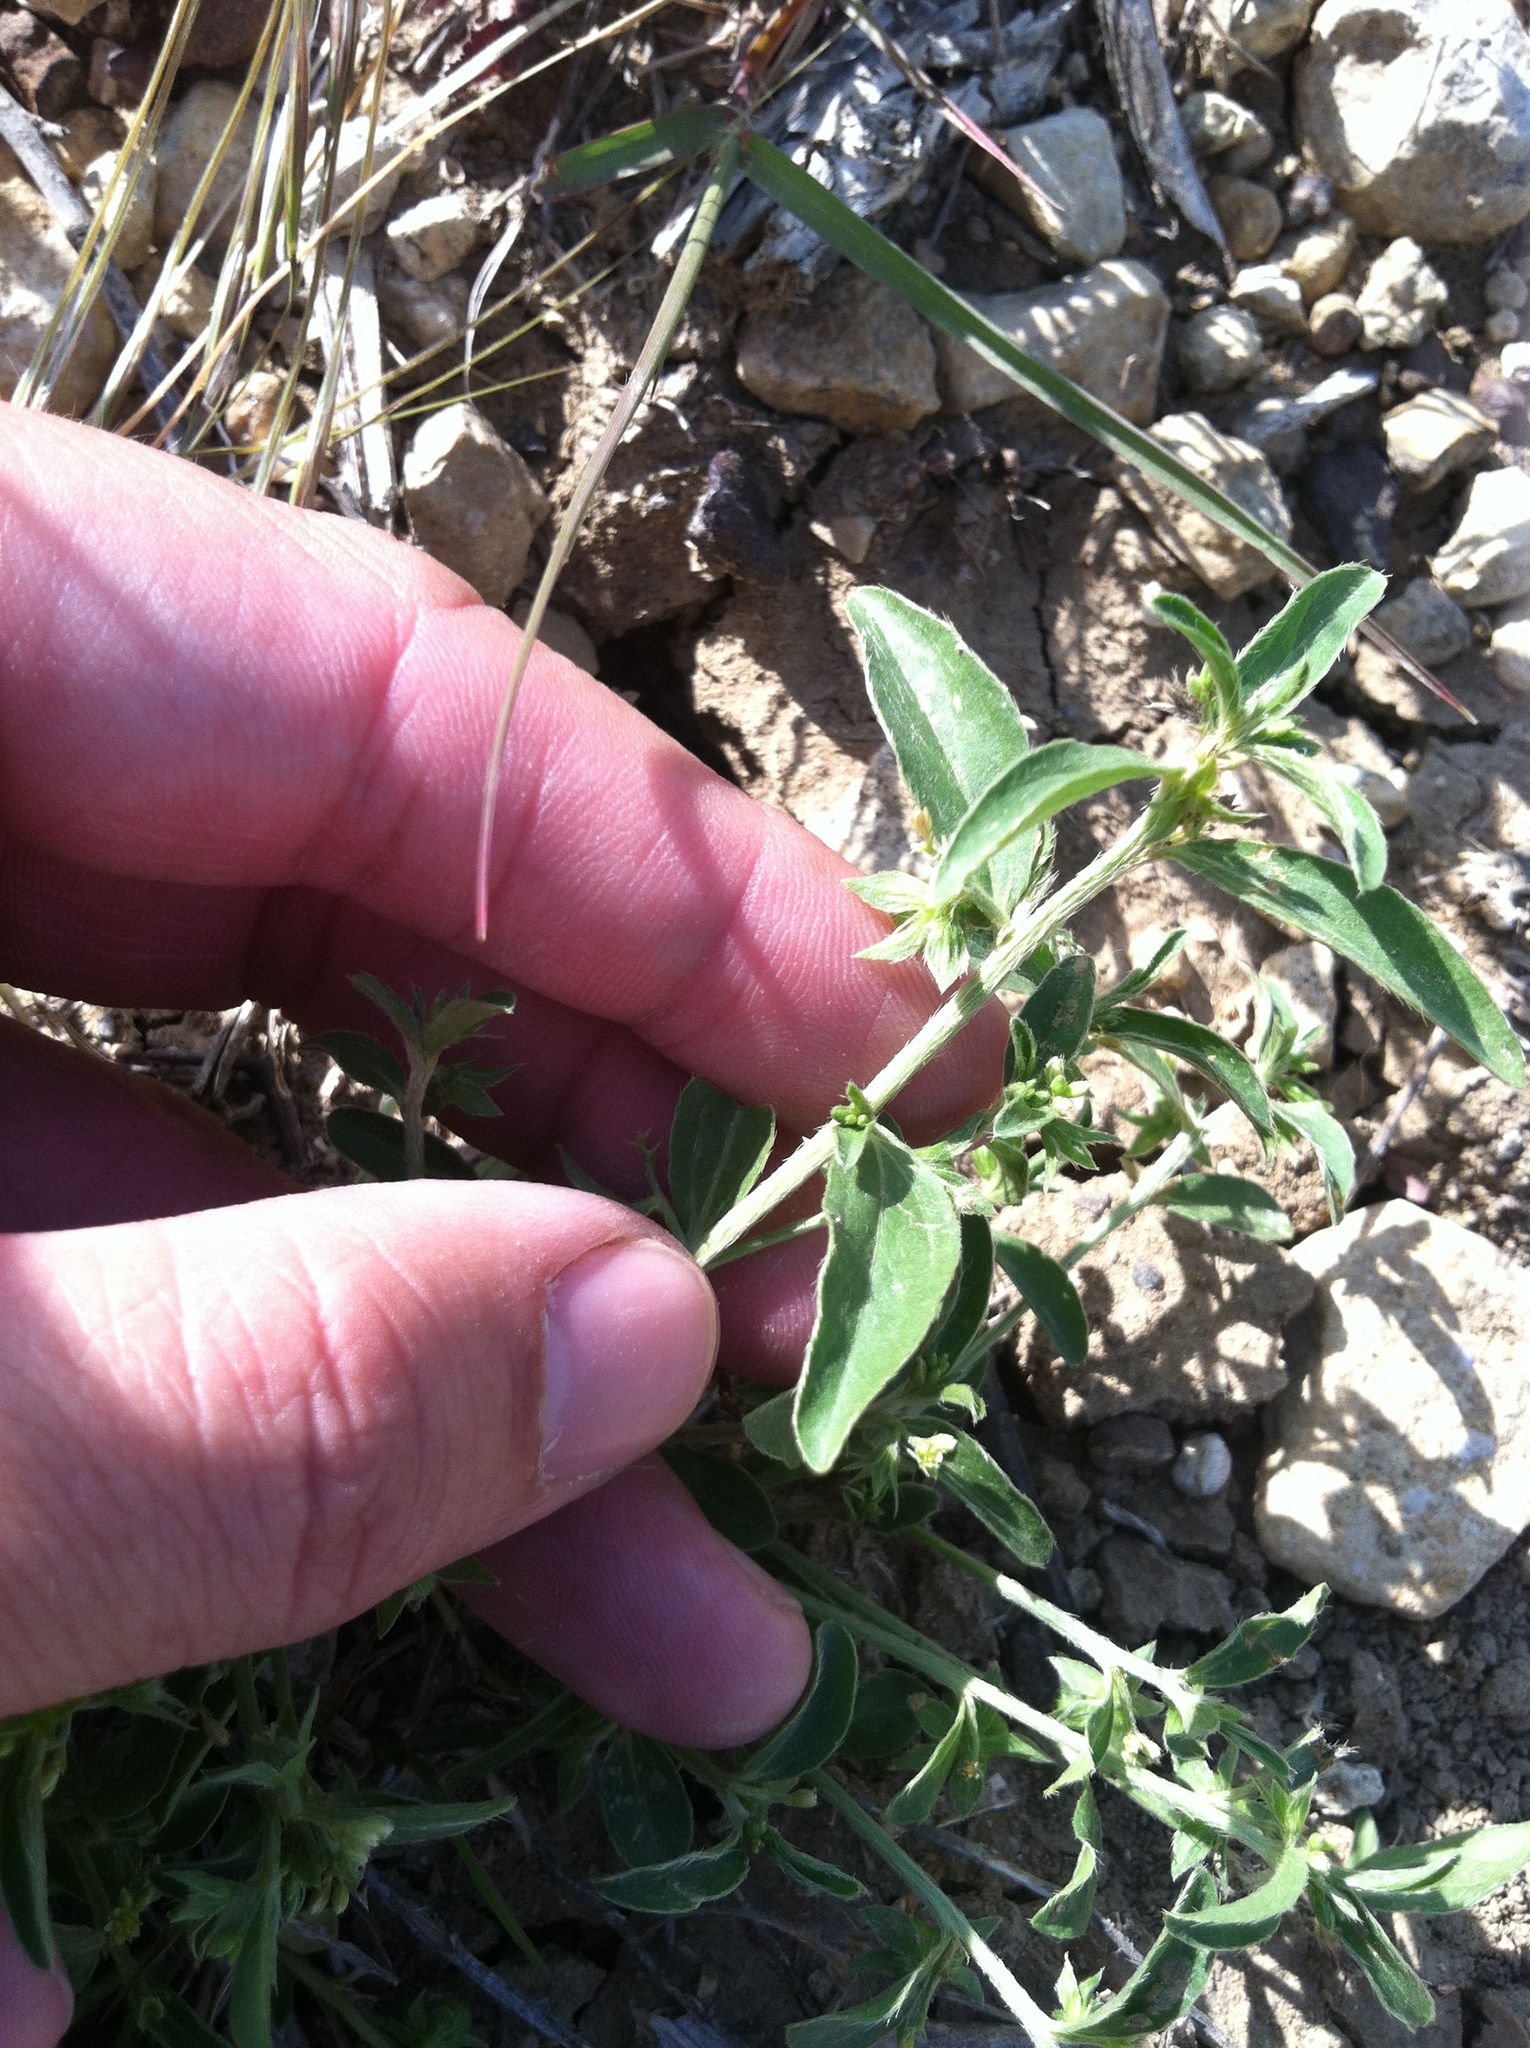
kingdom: Plantae
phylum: Tracheophyta
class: Magnoliopsida
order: Malpighiales
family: Euphorbiaceae
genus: Ditaxis
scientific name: Ditaxis humilis
